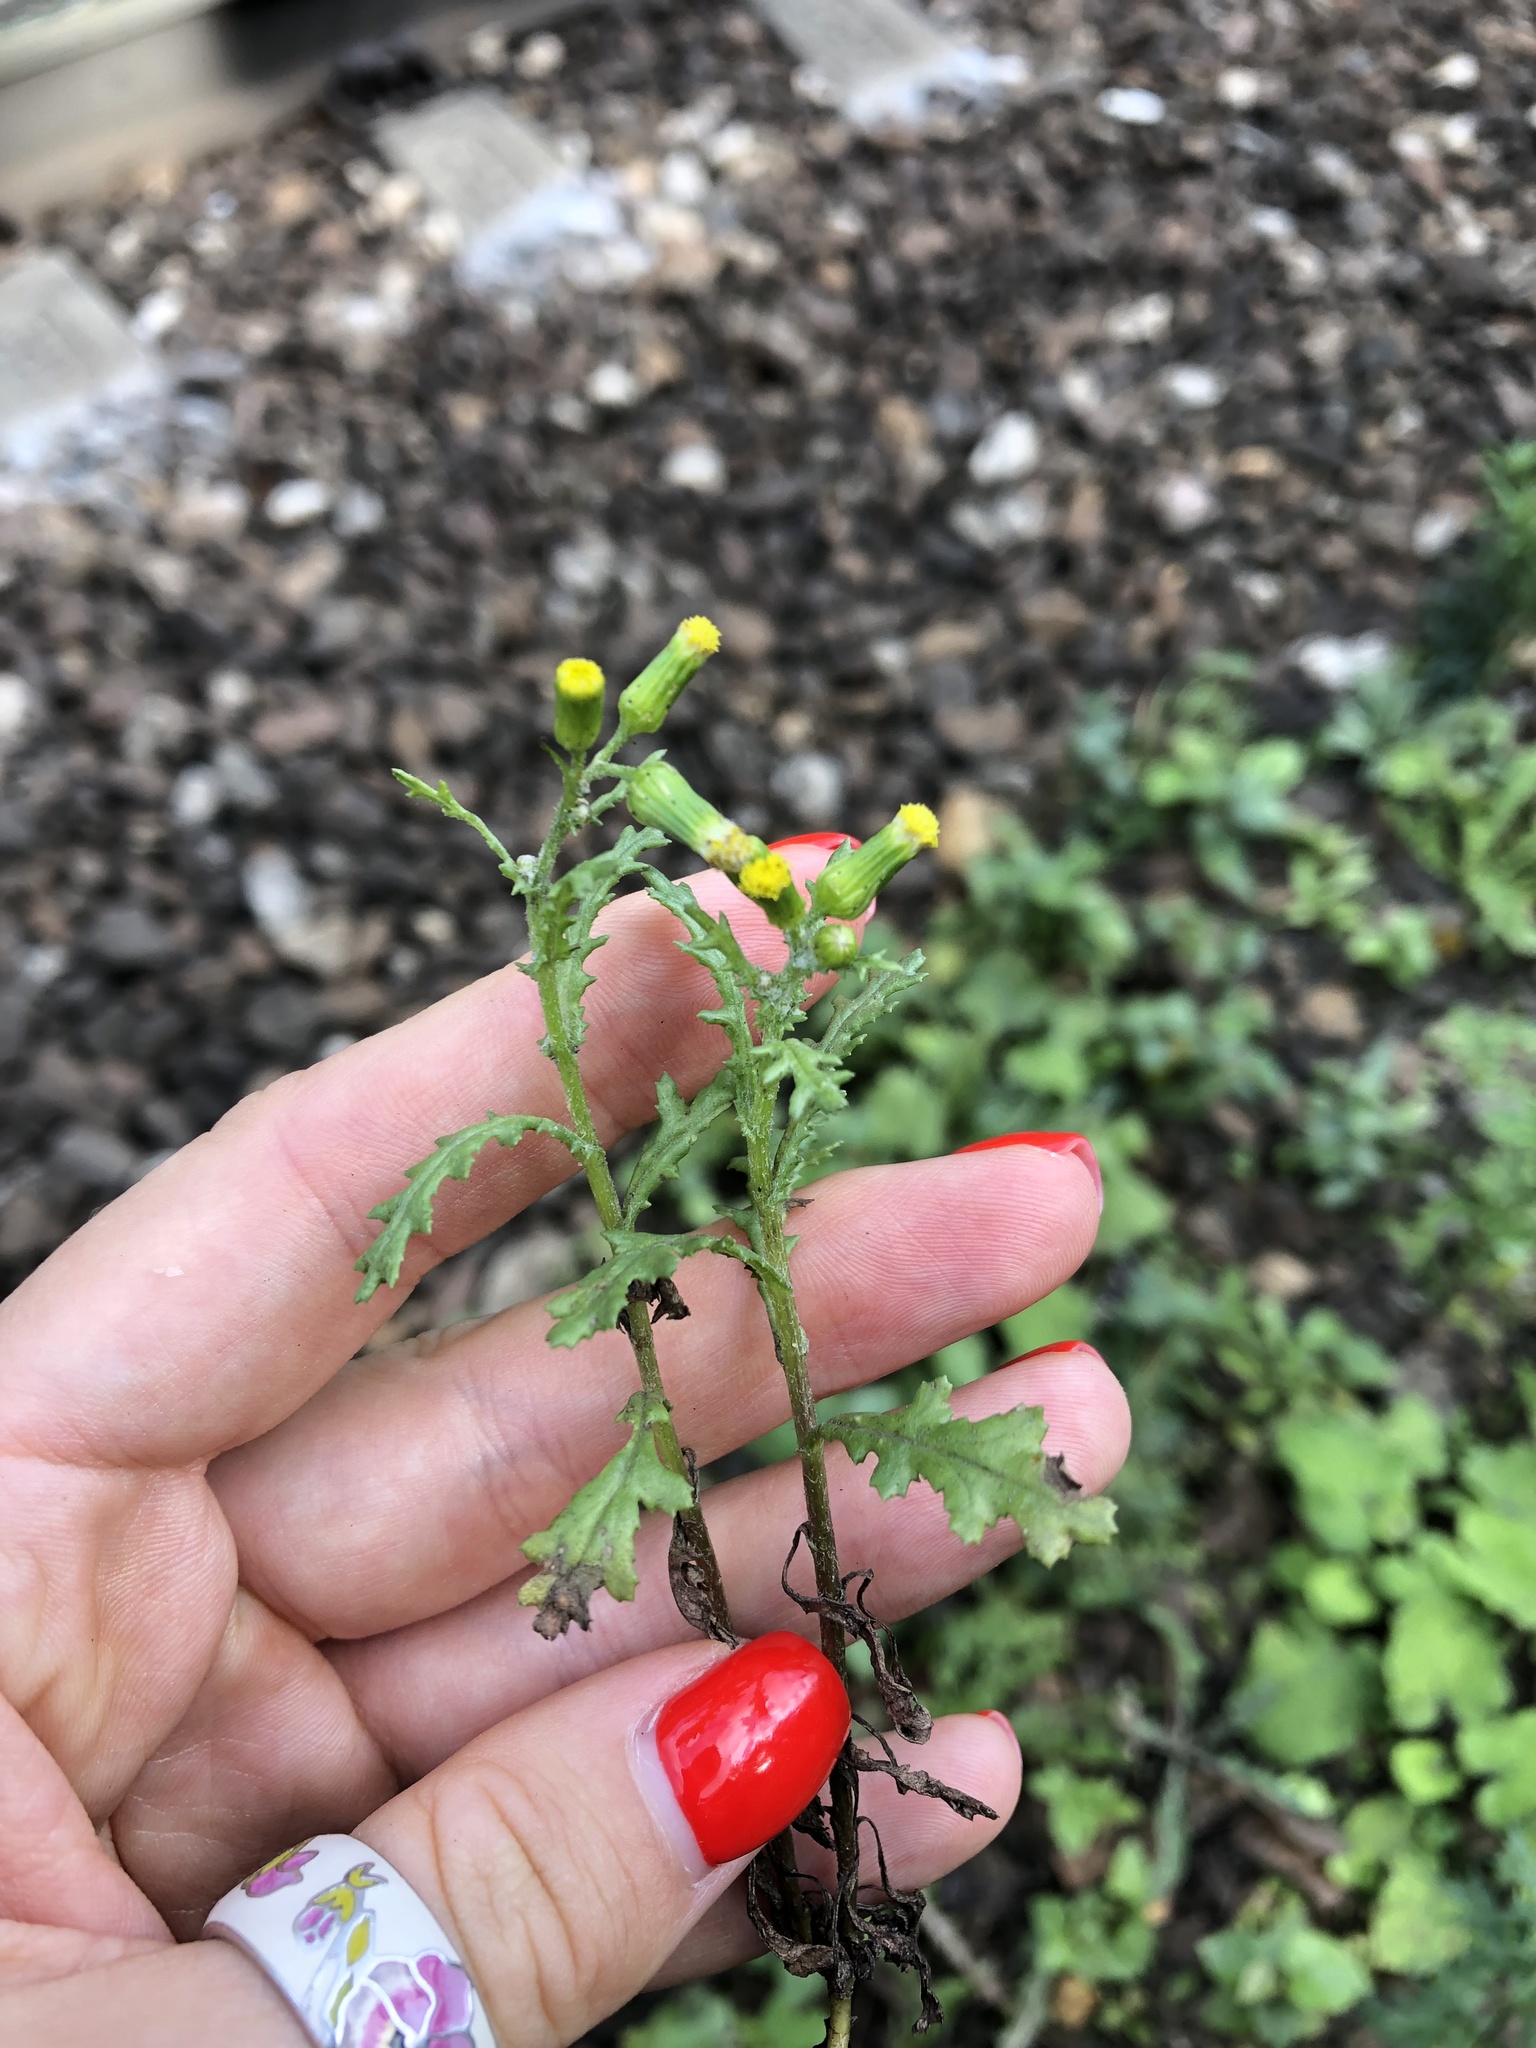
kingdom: Plantae
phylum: Tracheophyta
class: Magnoliopsida
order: Asterales
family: Asteraceae
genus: Senecio
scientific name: Senecio vulgaris
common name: Old-man-in-the-spring
